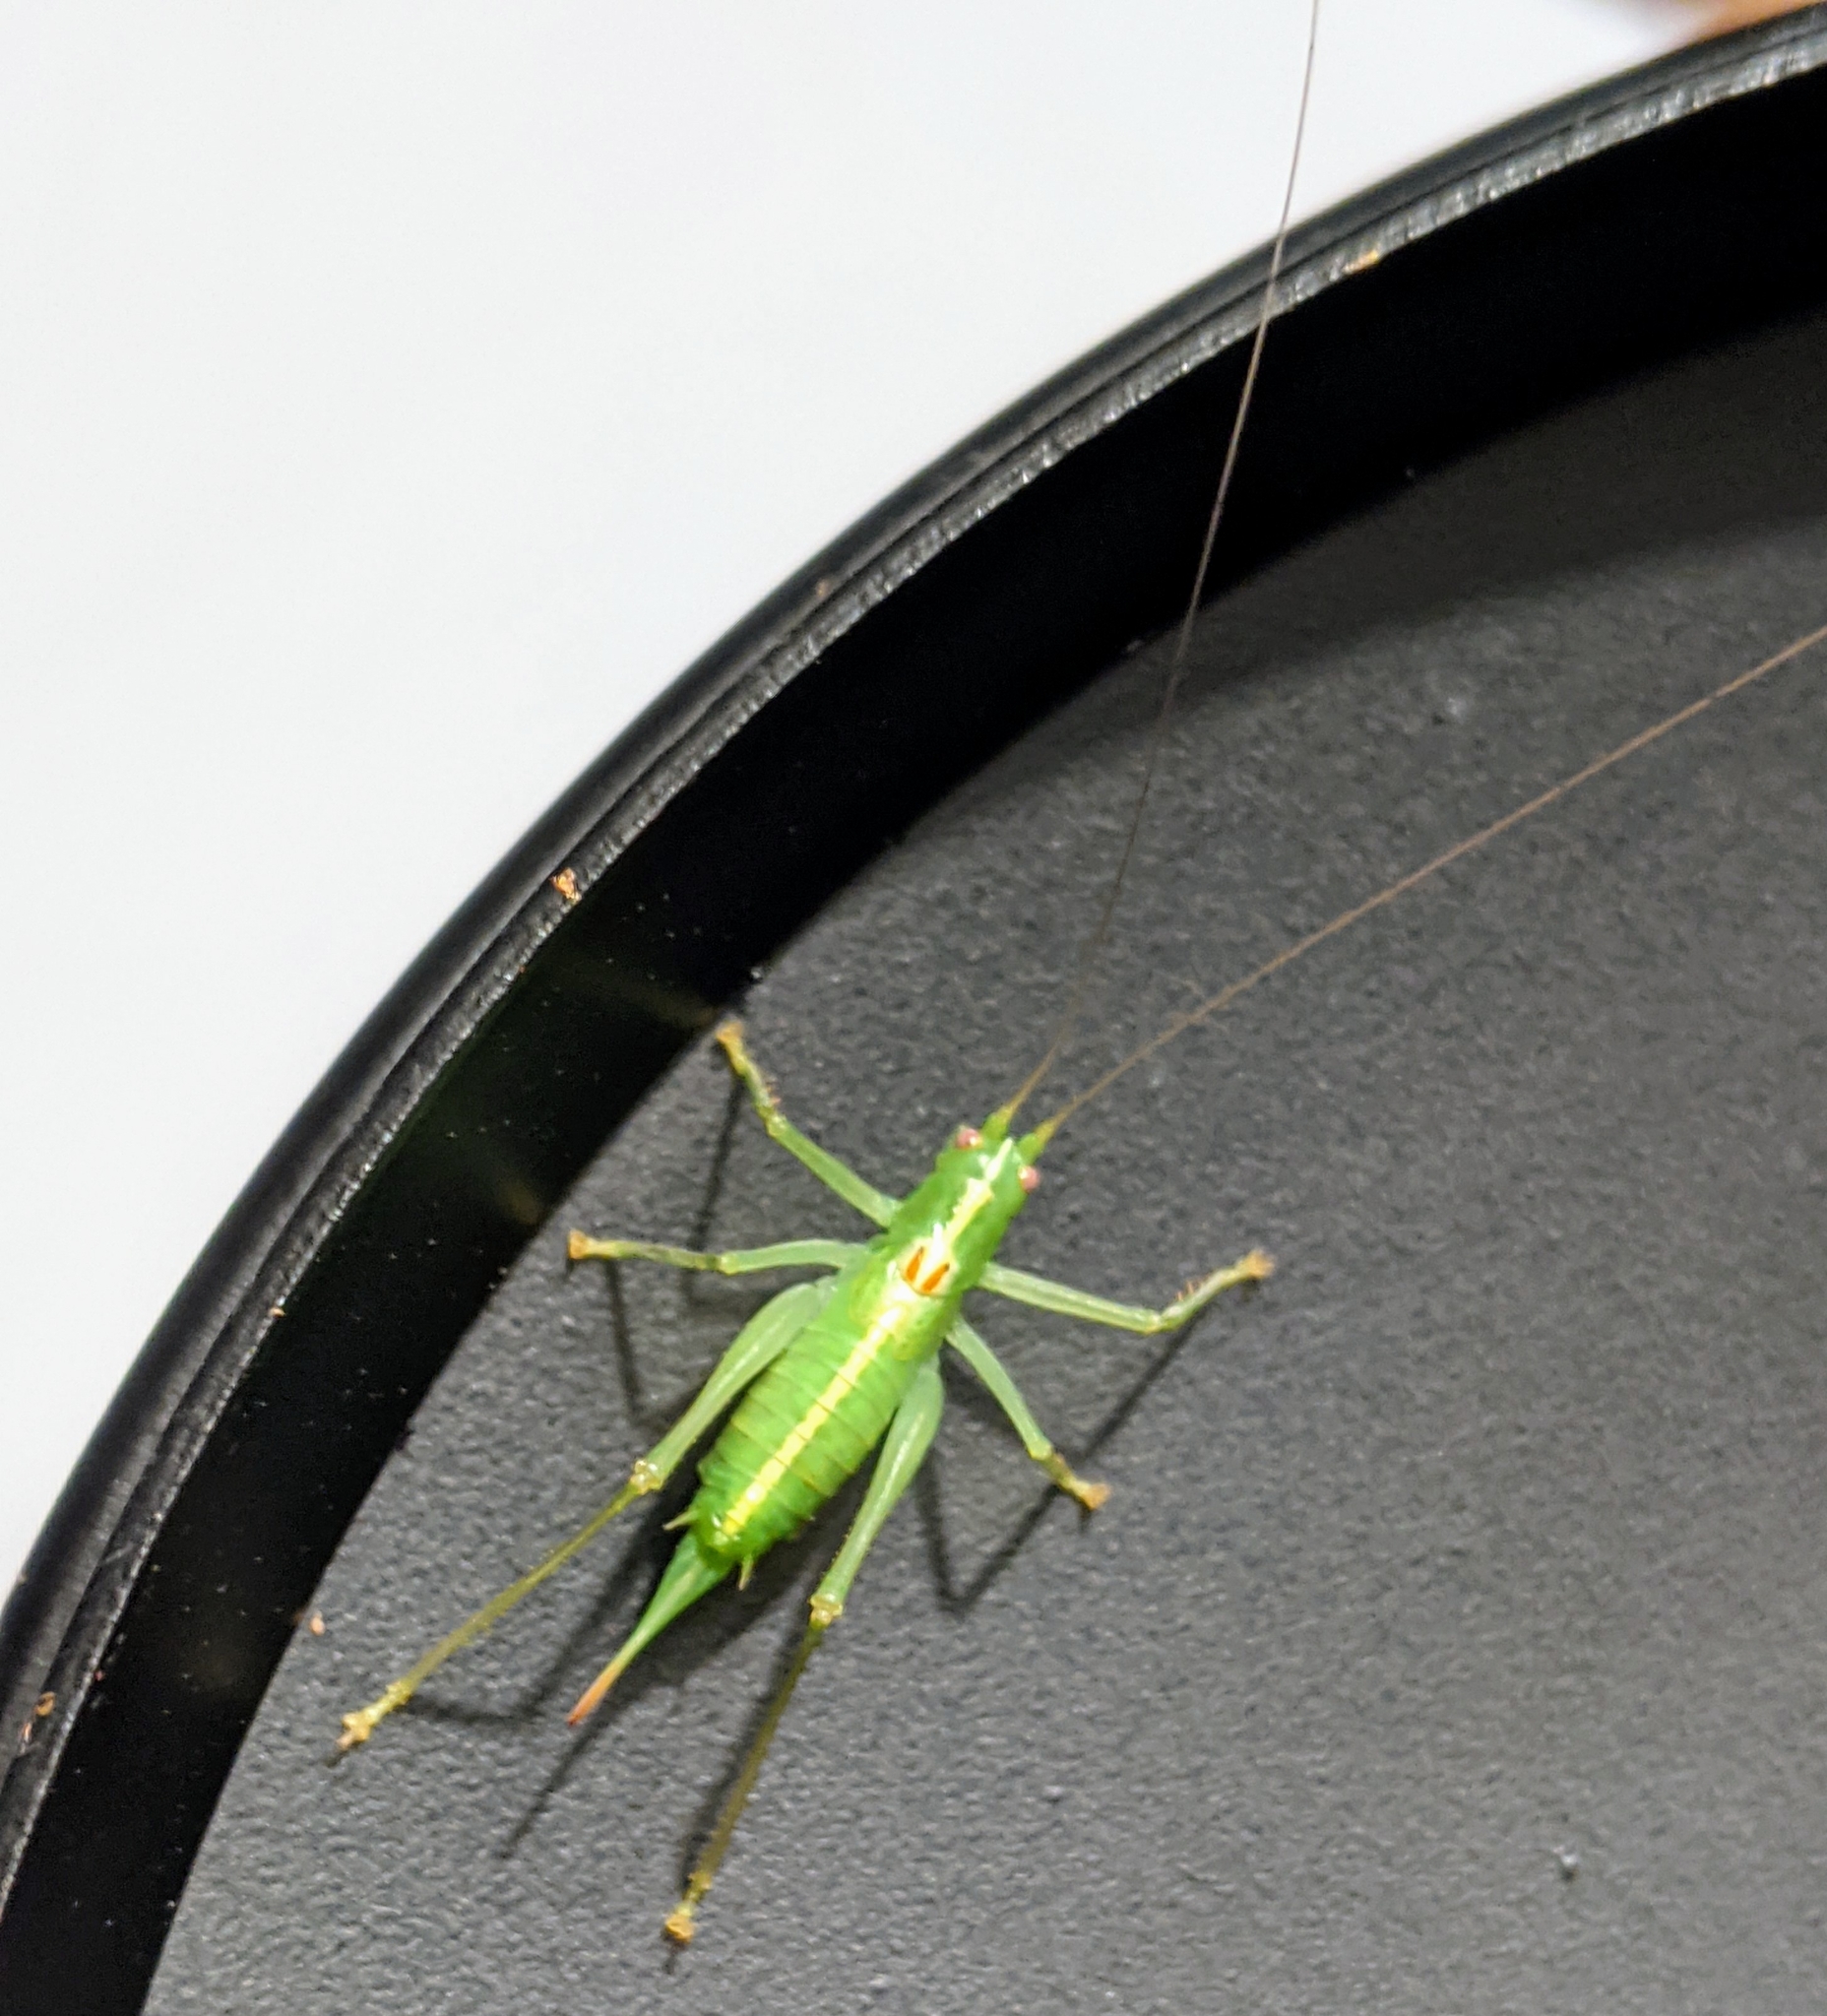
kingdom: Animalia
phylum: Arthropoda
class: Insecta
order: Orthoptera
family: Tettigoniidae
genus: Meconema
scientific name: Meconema meridionale
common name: Southern oak bush-cricket
